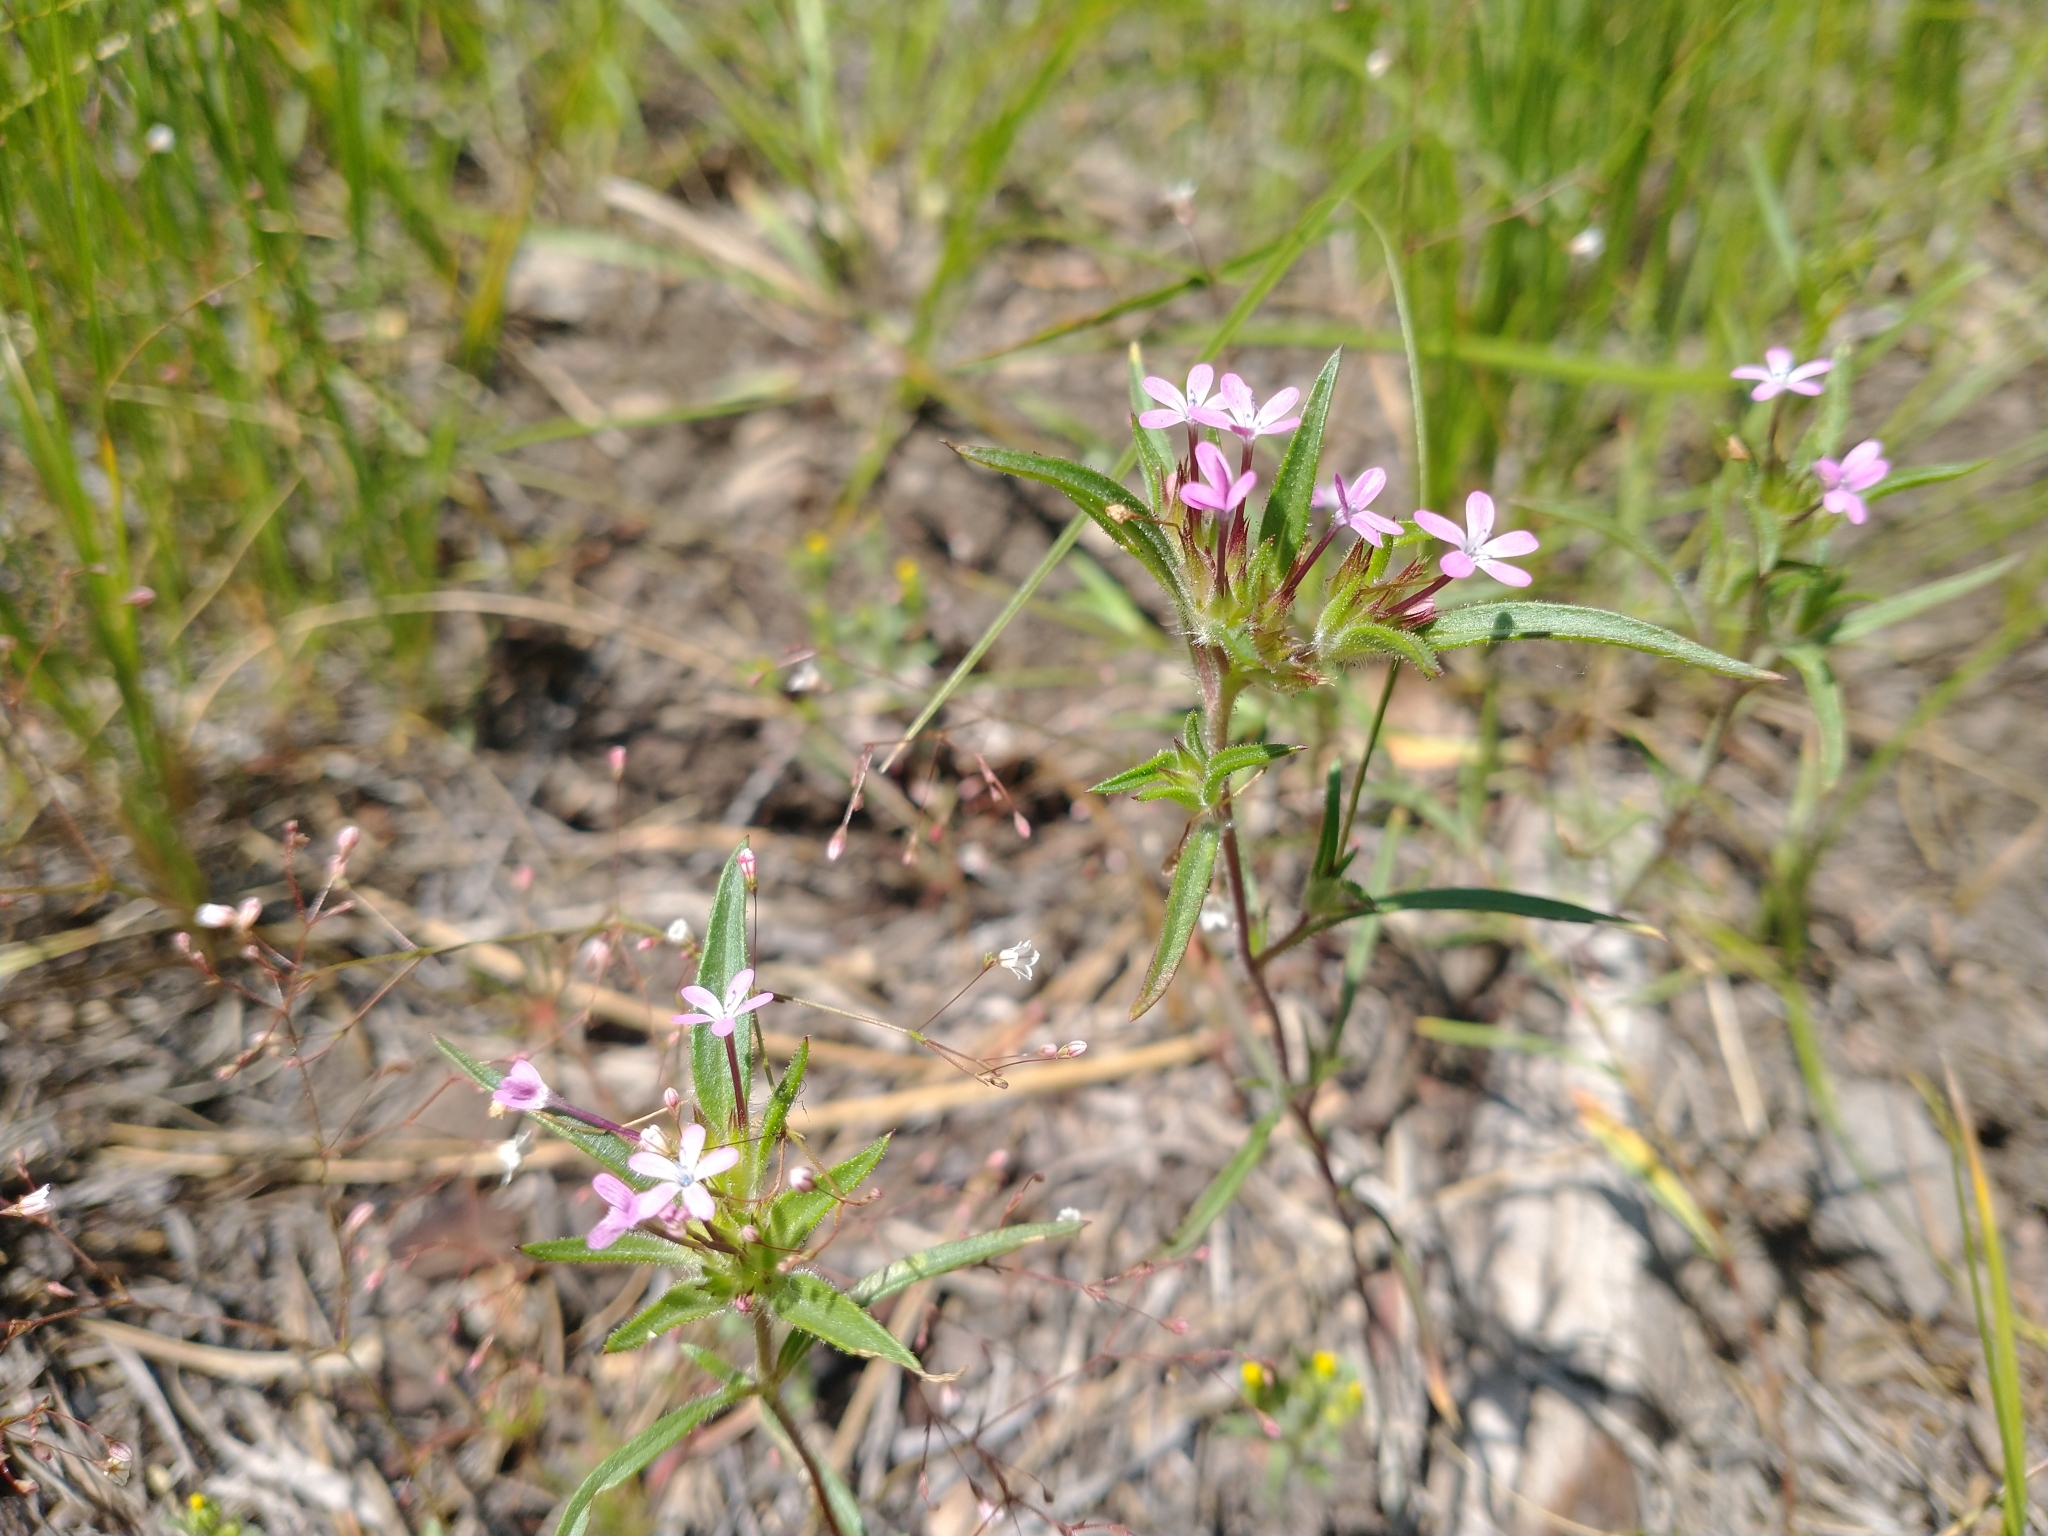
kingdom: Plantae
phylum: Tracheophyta
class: Magnoliopsida
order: Ericales
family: Polemoniaceae
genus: Collomia
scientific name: Collomia tinctoria
